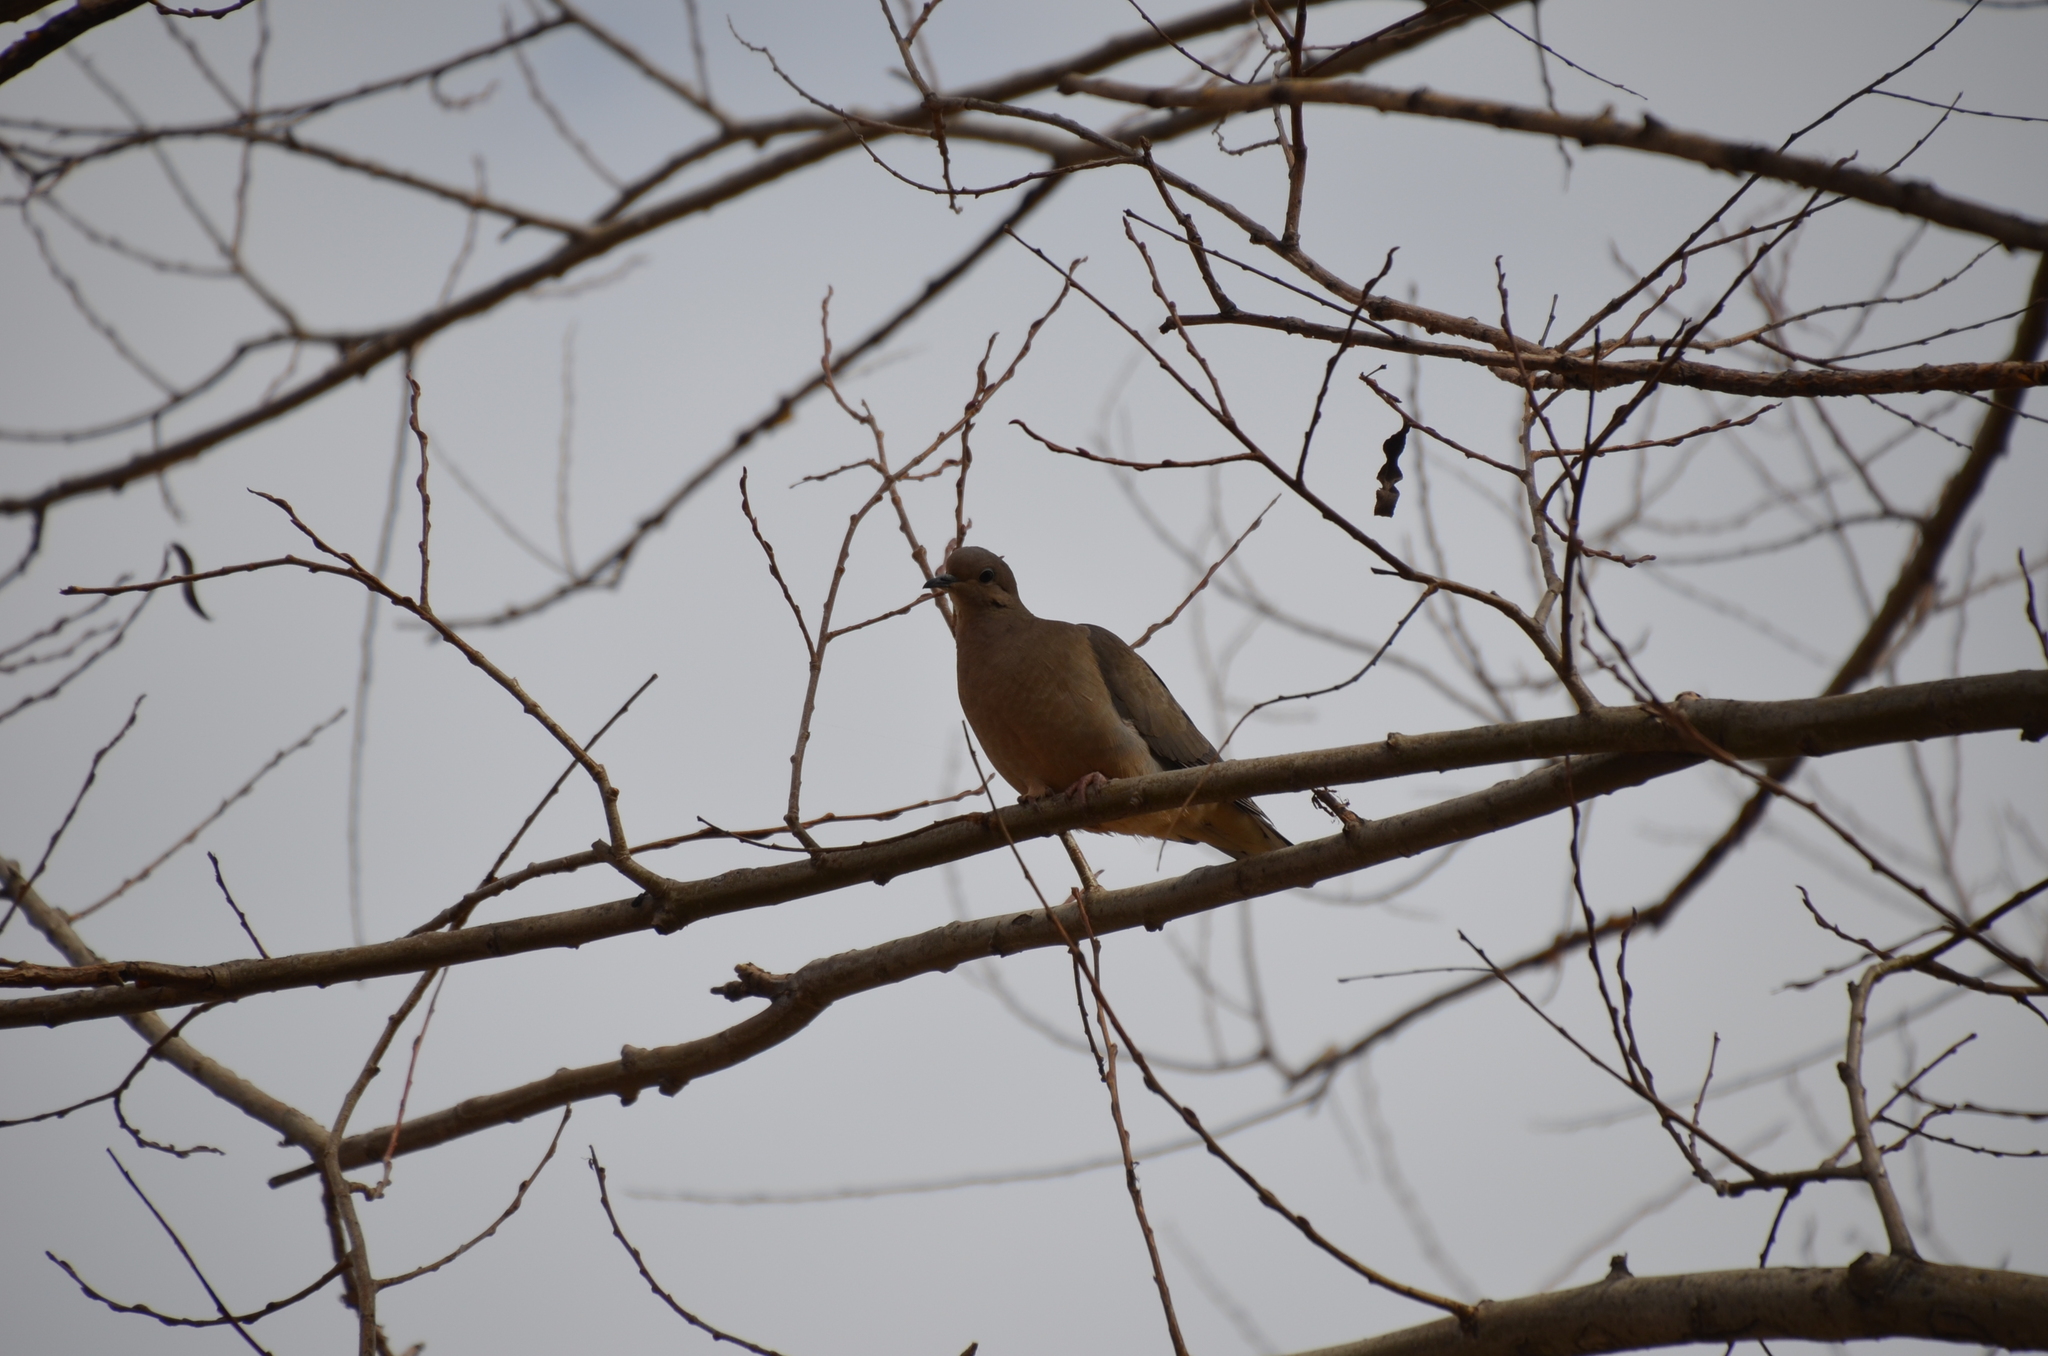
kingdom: Animalia
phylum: Chordata
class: Aves
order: Columbiformes
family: Columbidae
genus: Zenaida
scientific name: Zenaida auriculata
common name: Eared dove
